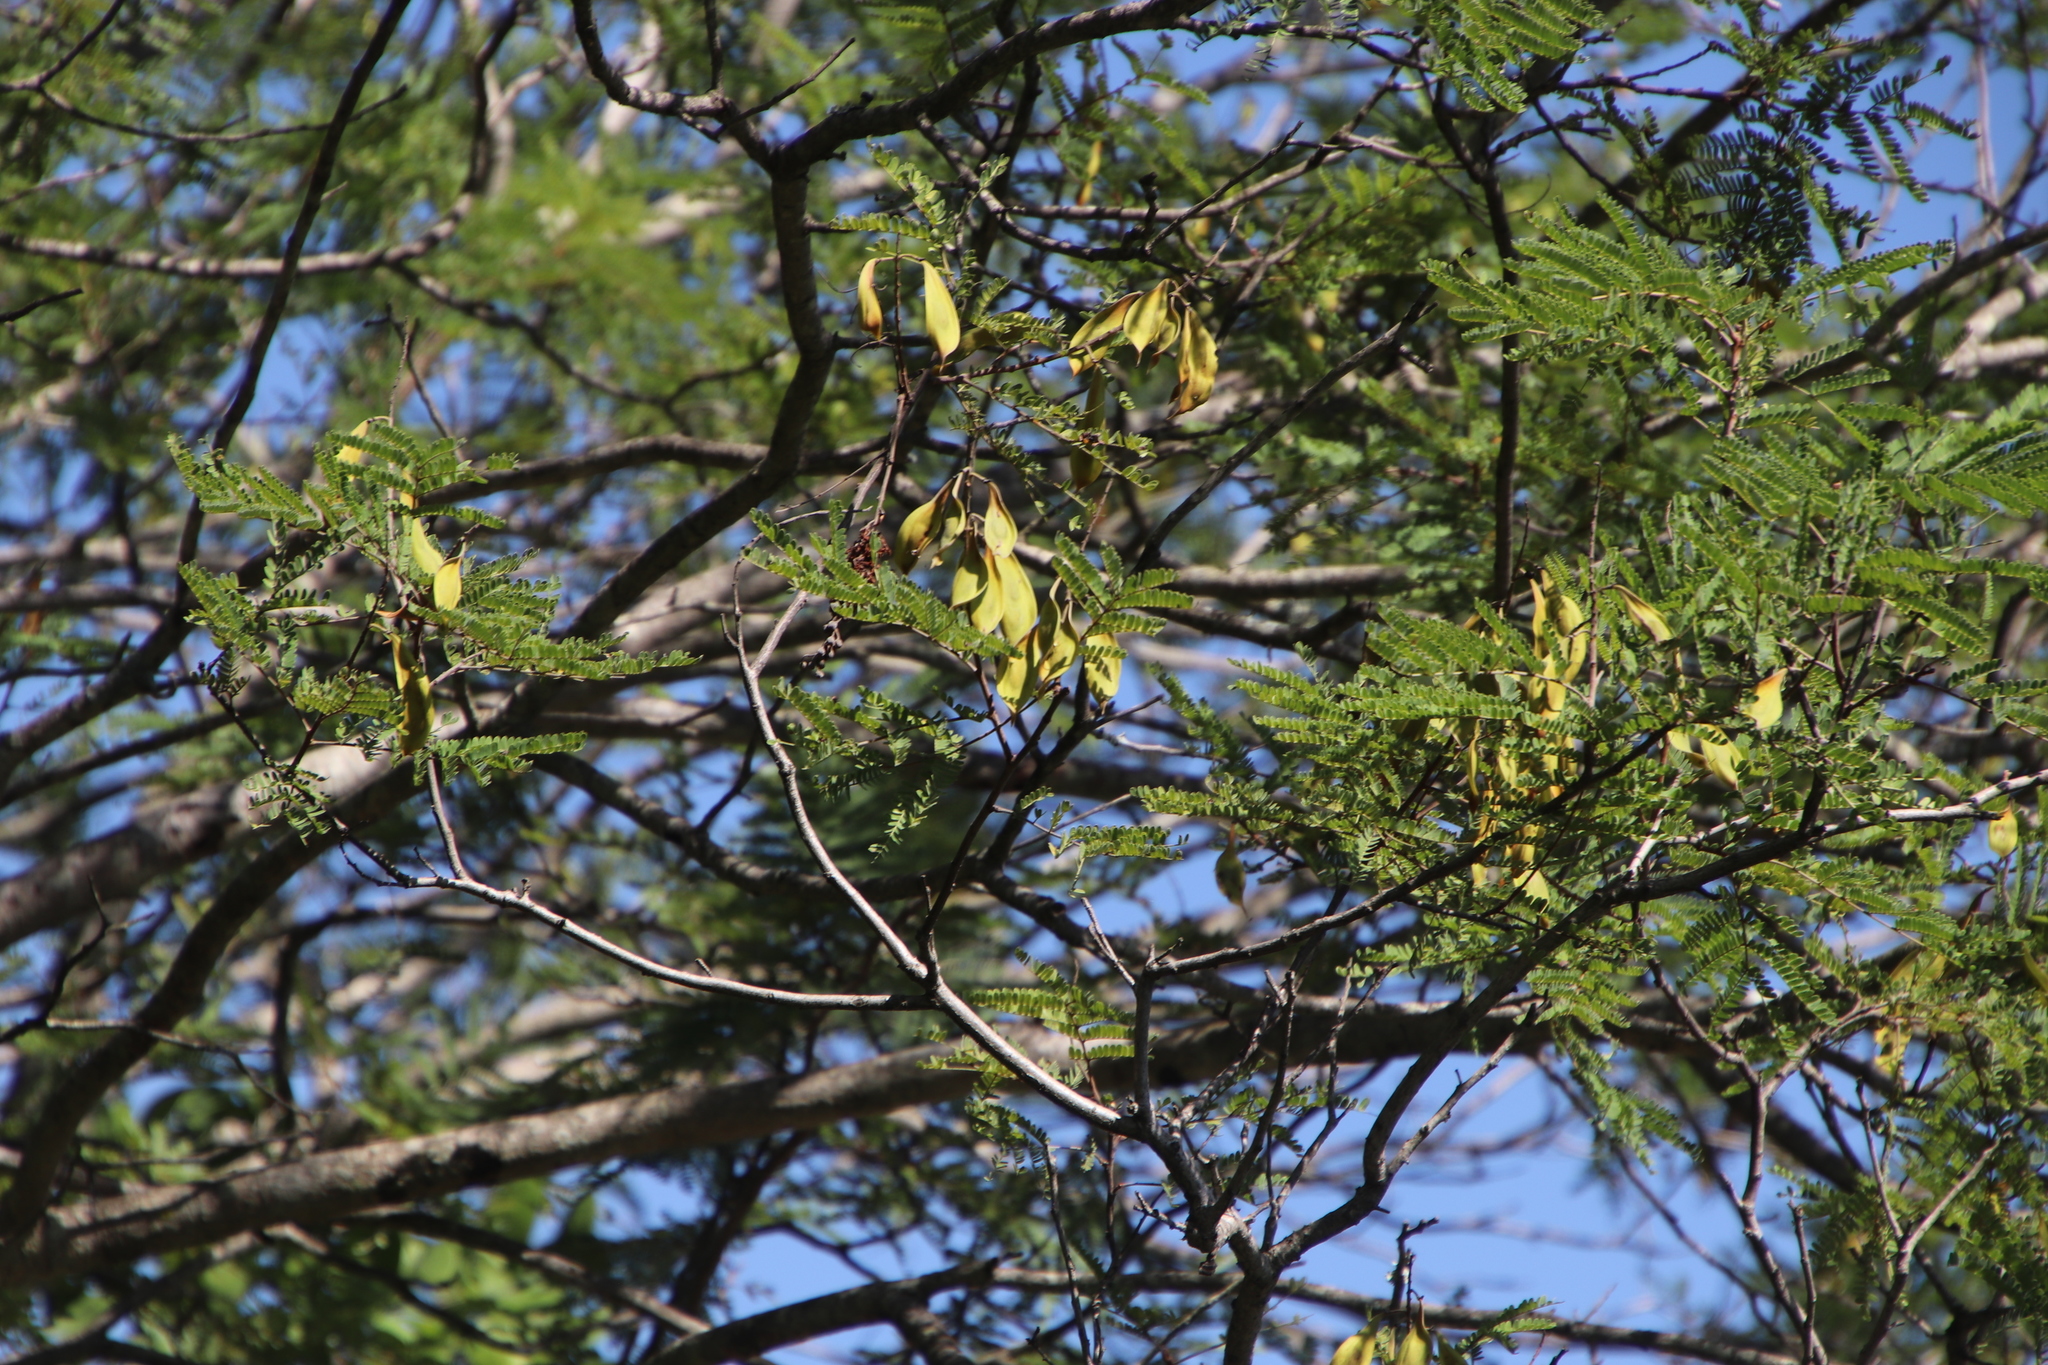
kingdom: Plantae
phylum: Tracheophyta
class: Magnoliopsida
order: Fabales
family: Fabaceae
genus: Peltophorum
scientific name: Peltophorum africanum
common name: African black wattle
